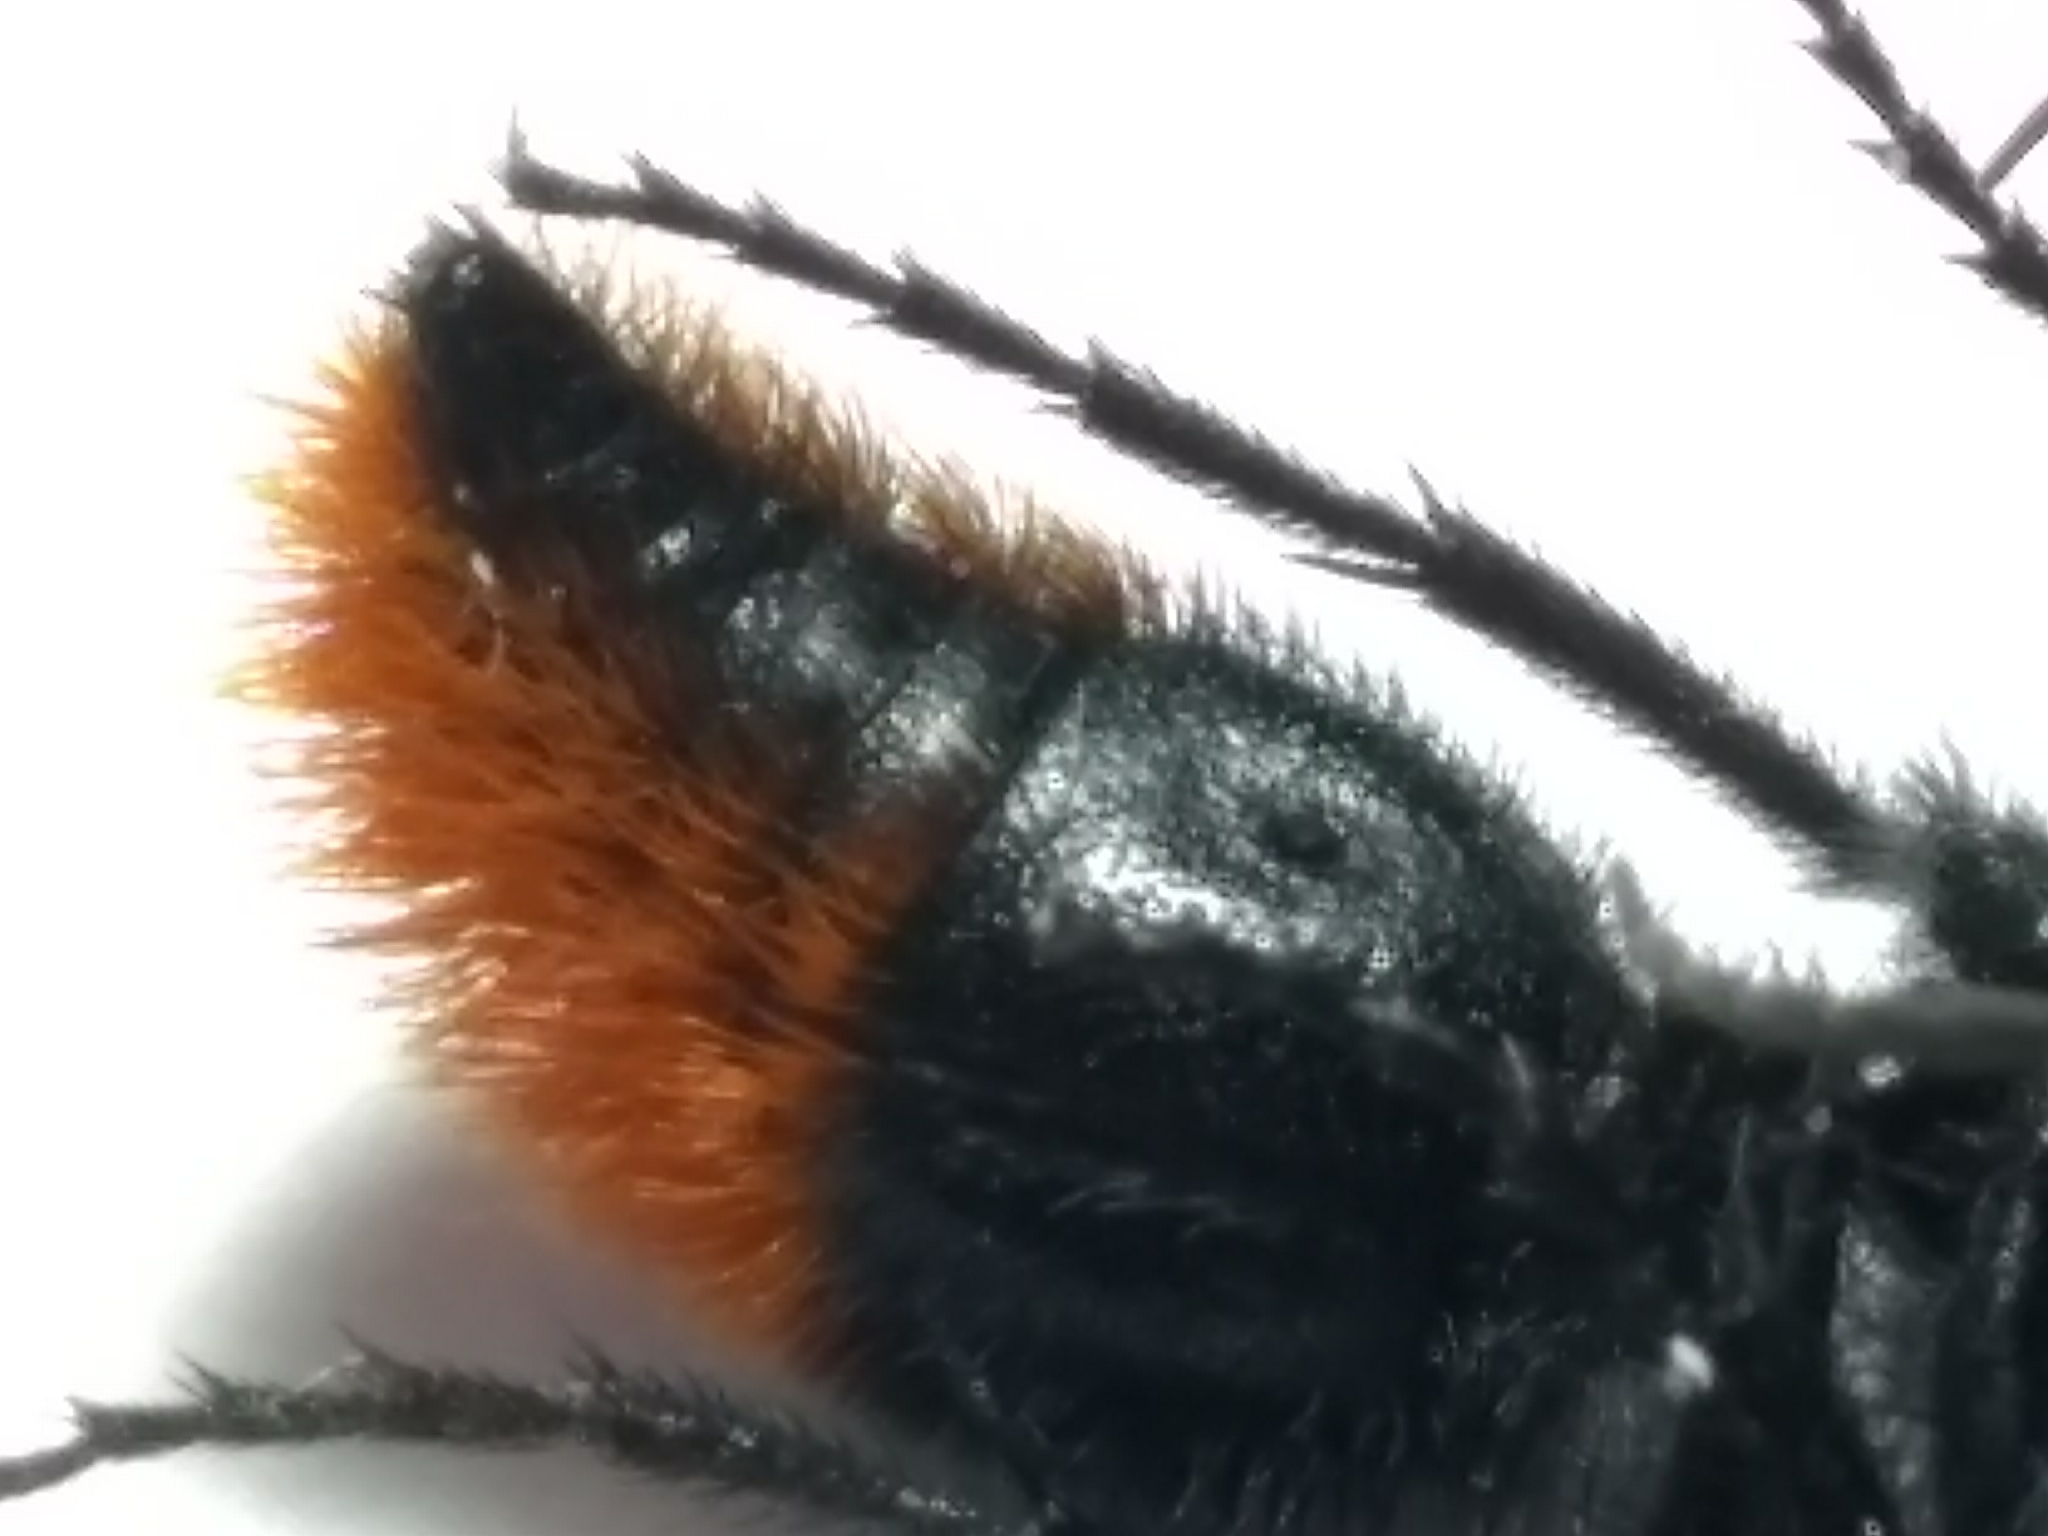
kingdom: Animalia
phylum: Arthropoda
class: Insecta
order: Hymenoptera
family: Mutillidae
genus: Dasymutilla
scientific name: Dasymutilla
